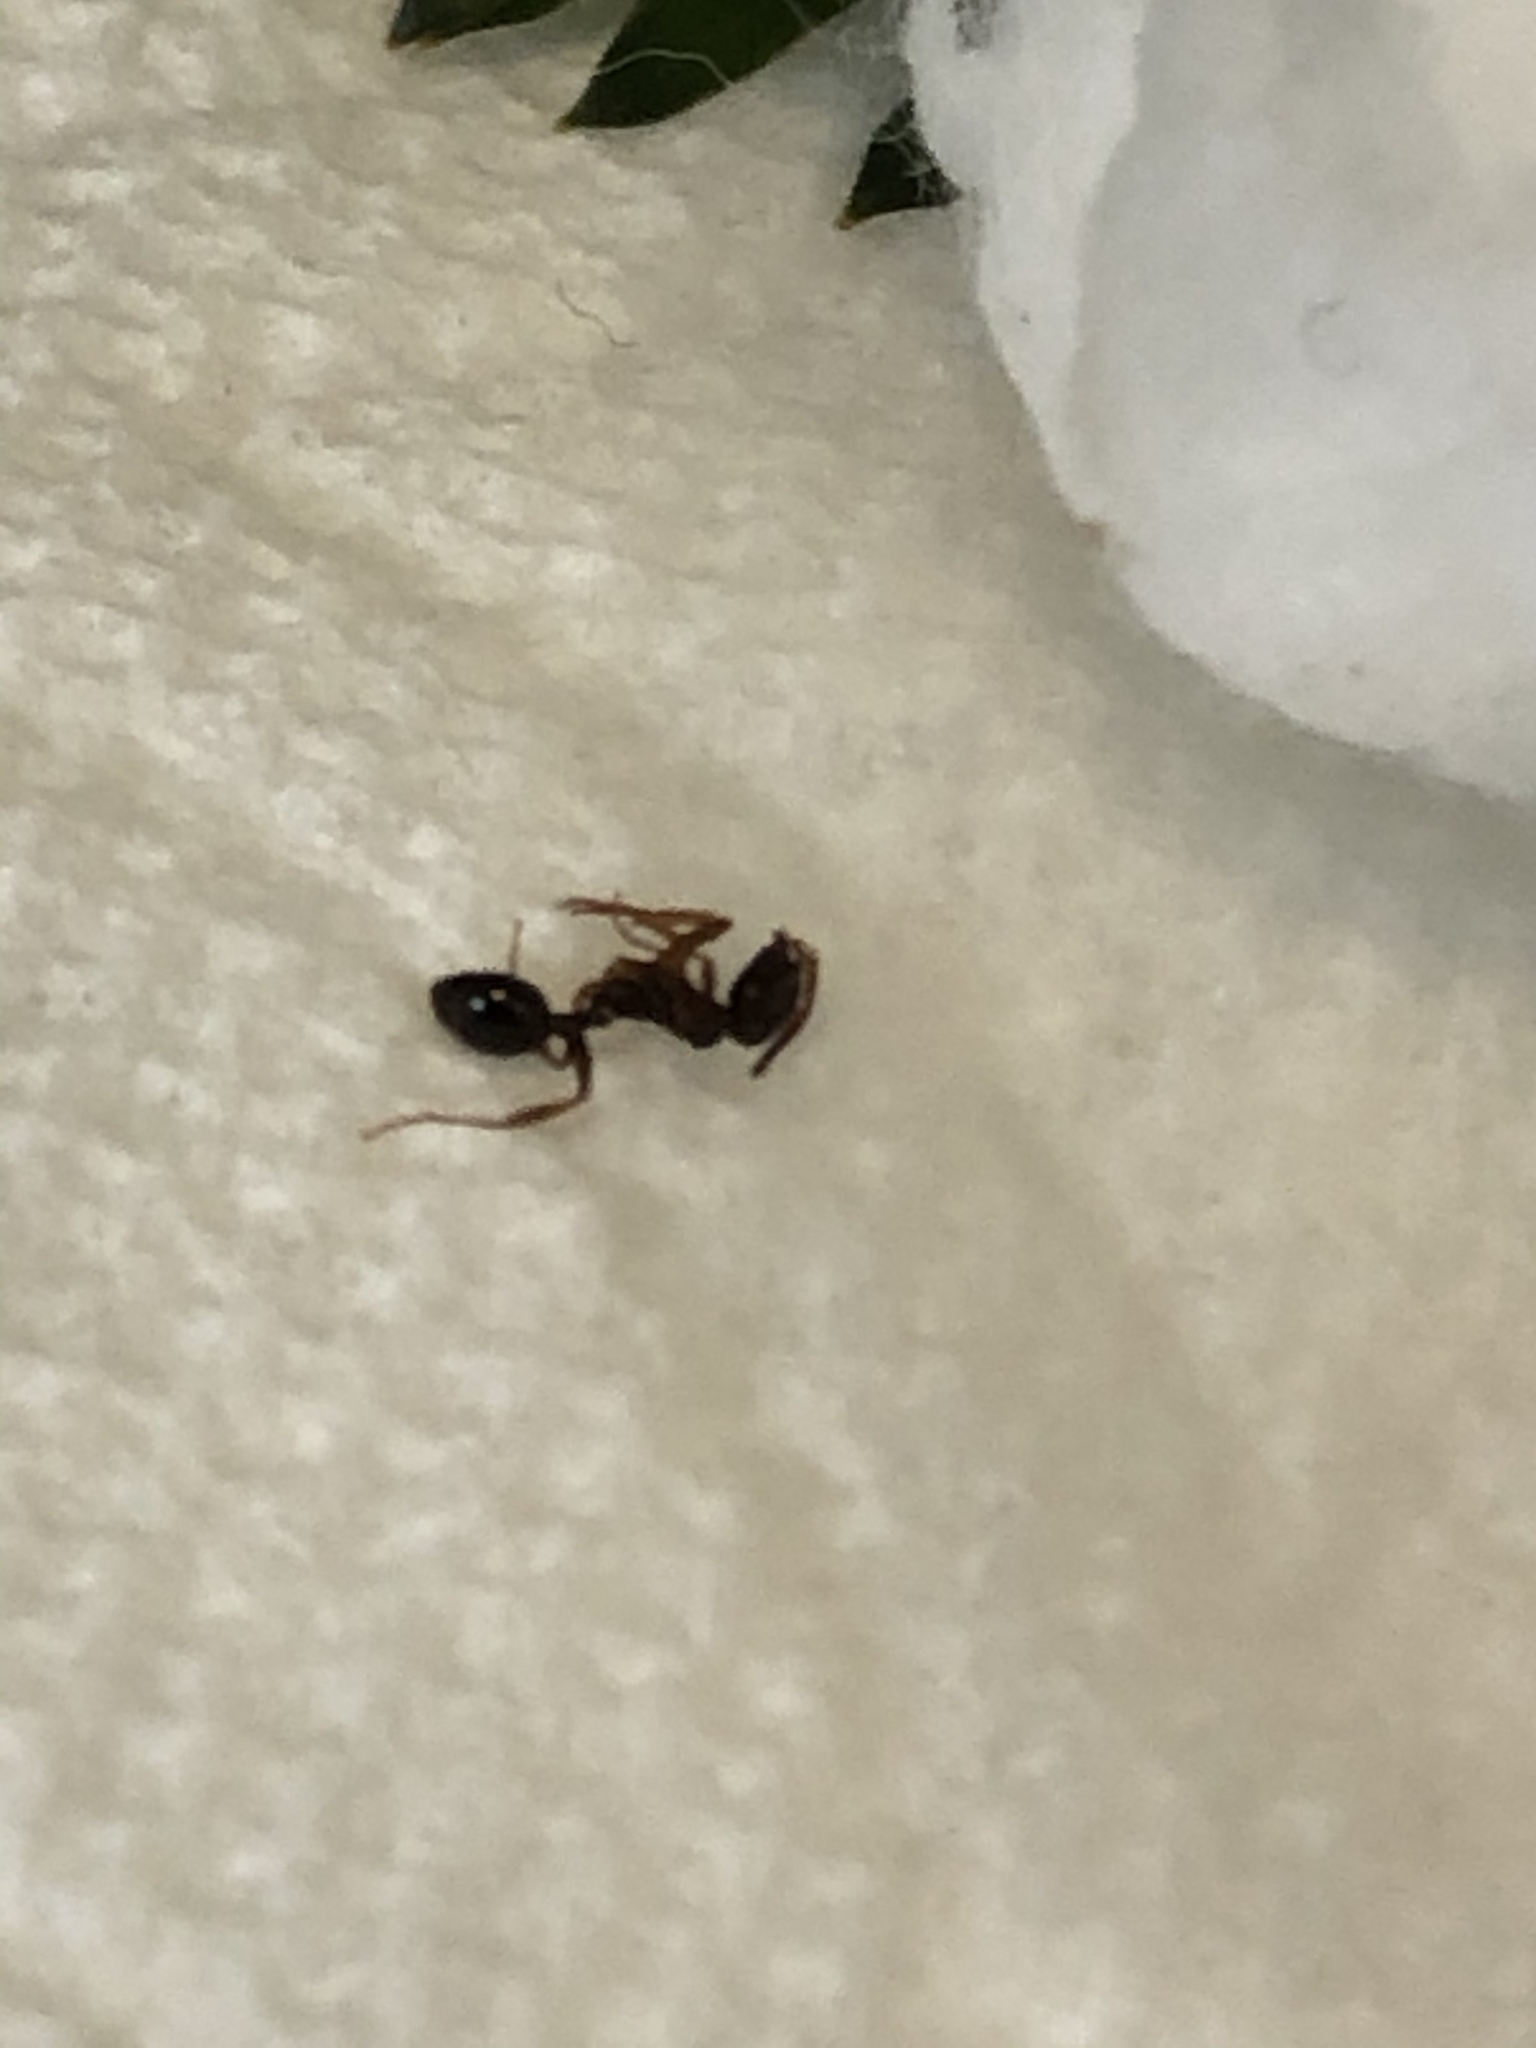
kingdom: Animalia
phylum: Arthropoda
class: Insecta
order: Hymenoptera
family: Formicidae
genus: Aphaenogaster
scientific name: Aphaenogaster occidentalis
